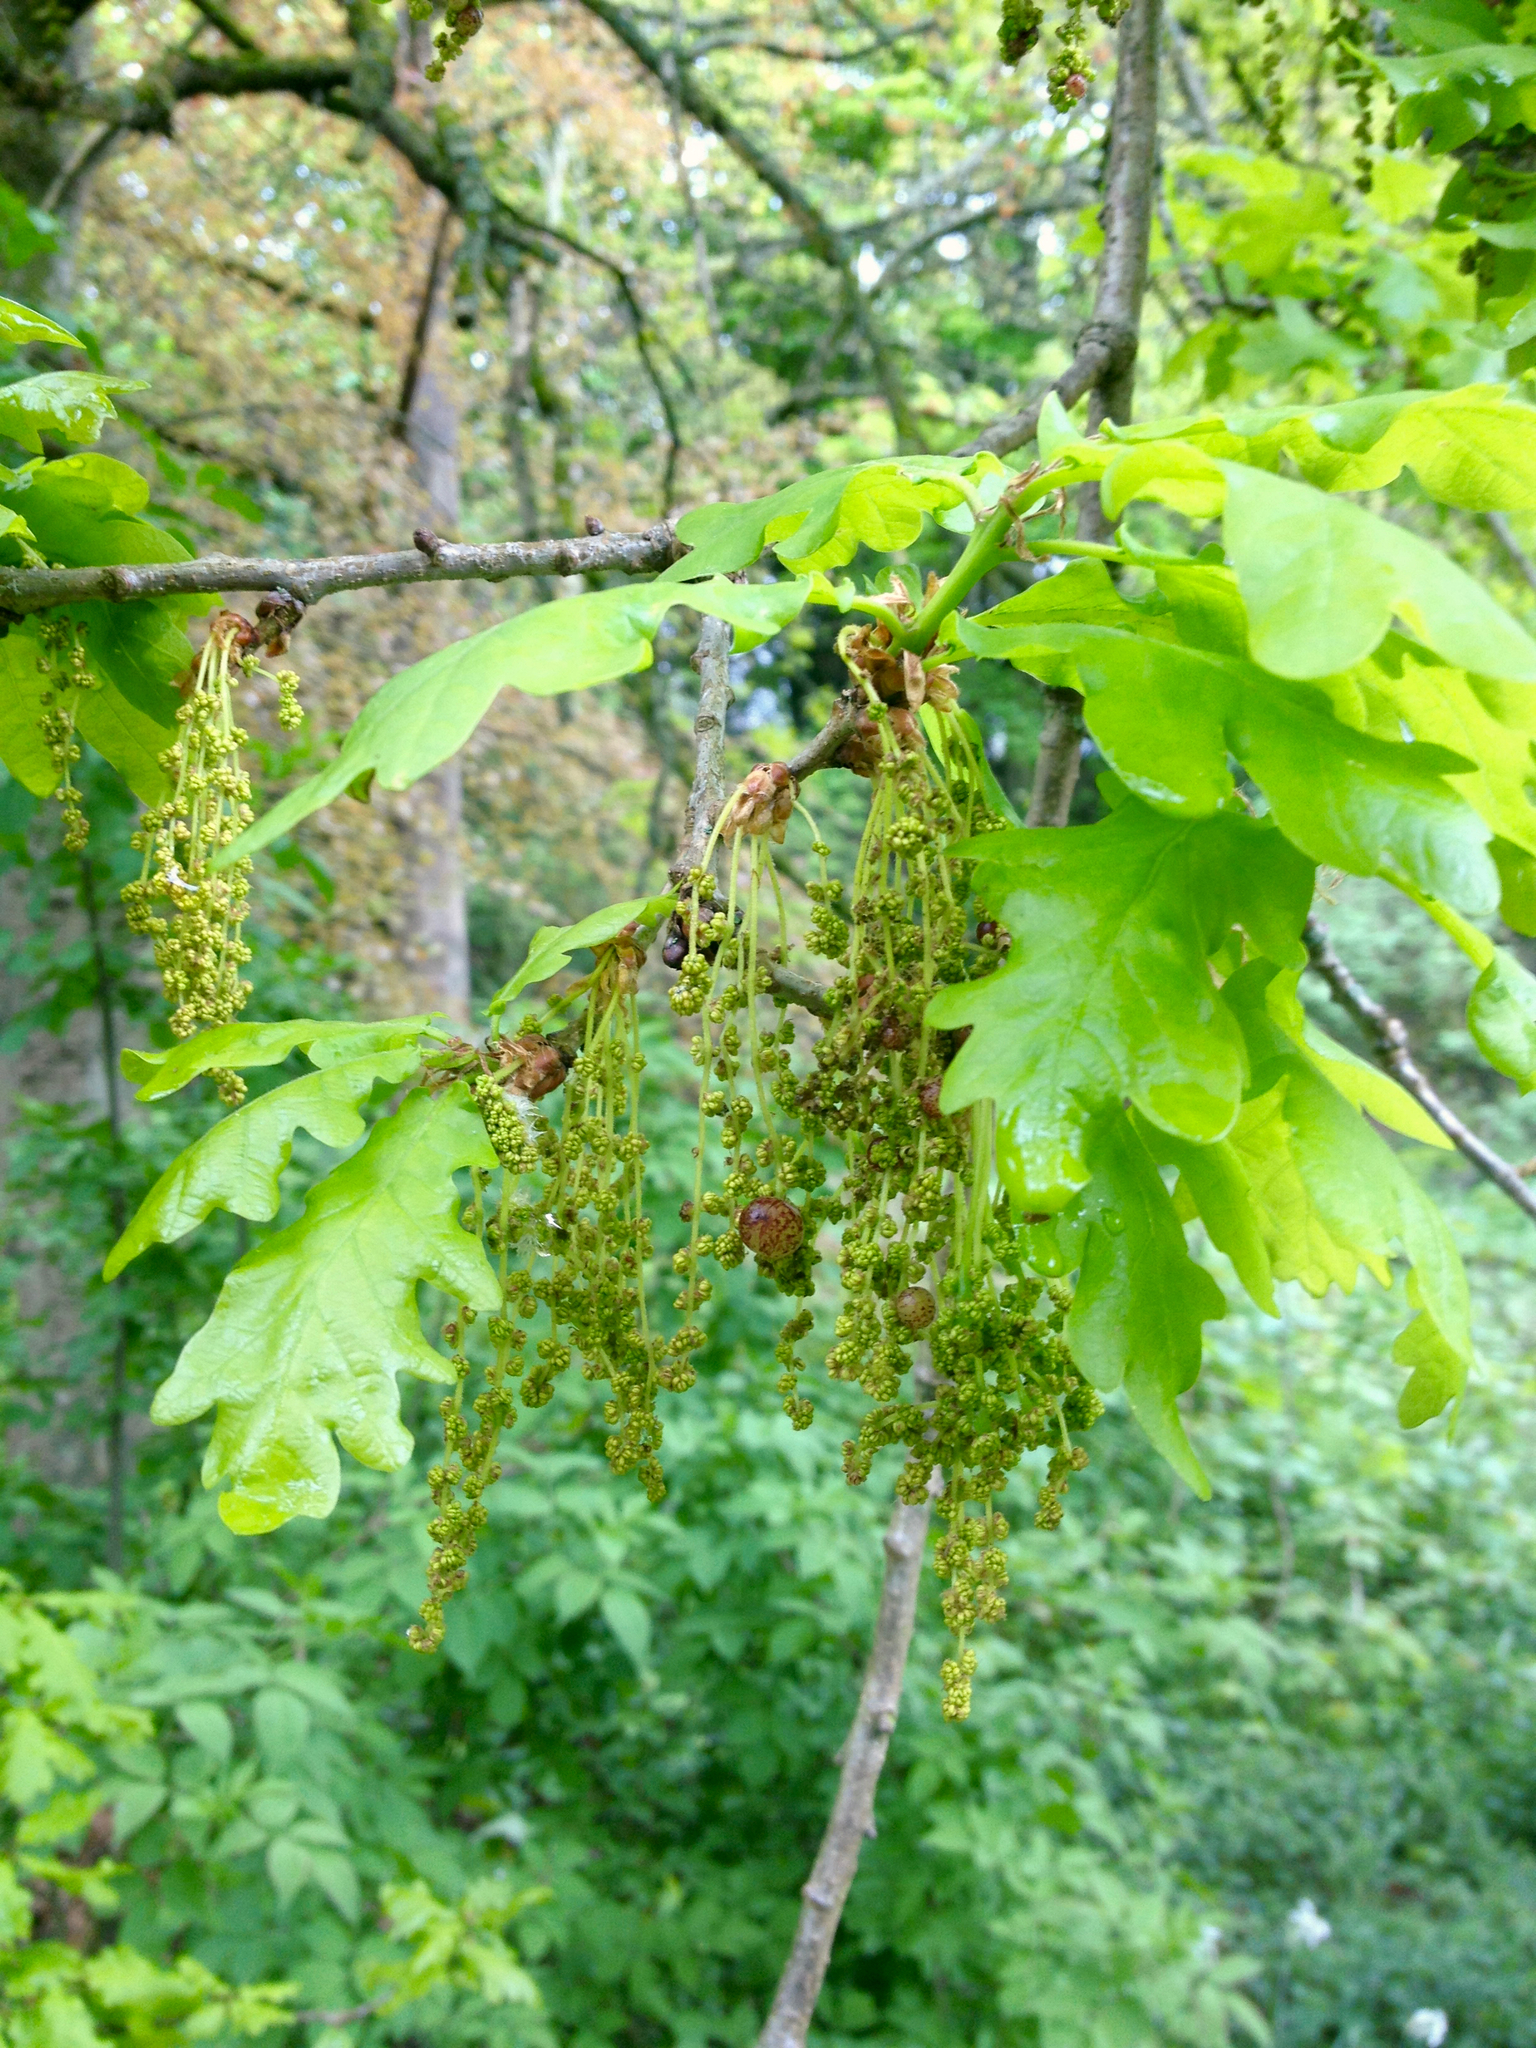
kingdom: Plantae
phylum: Tracheophyta
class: Magnoliopsida
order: Fagales
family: Fagaceae
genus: Quercus
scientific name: Quercus robur
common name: Pedunculate oak
